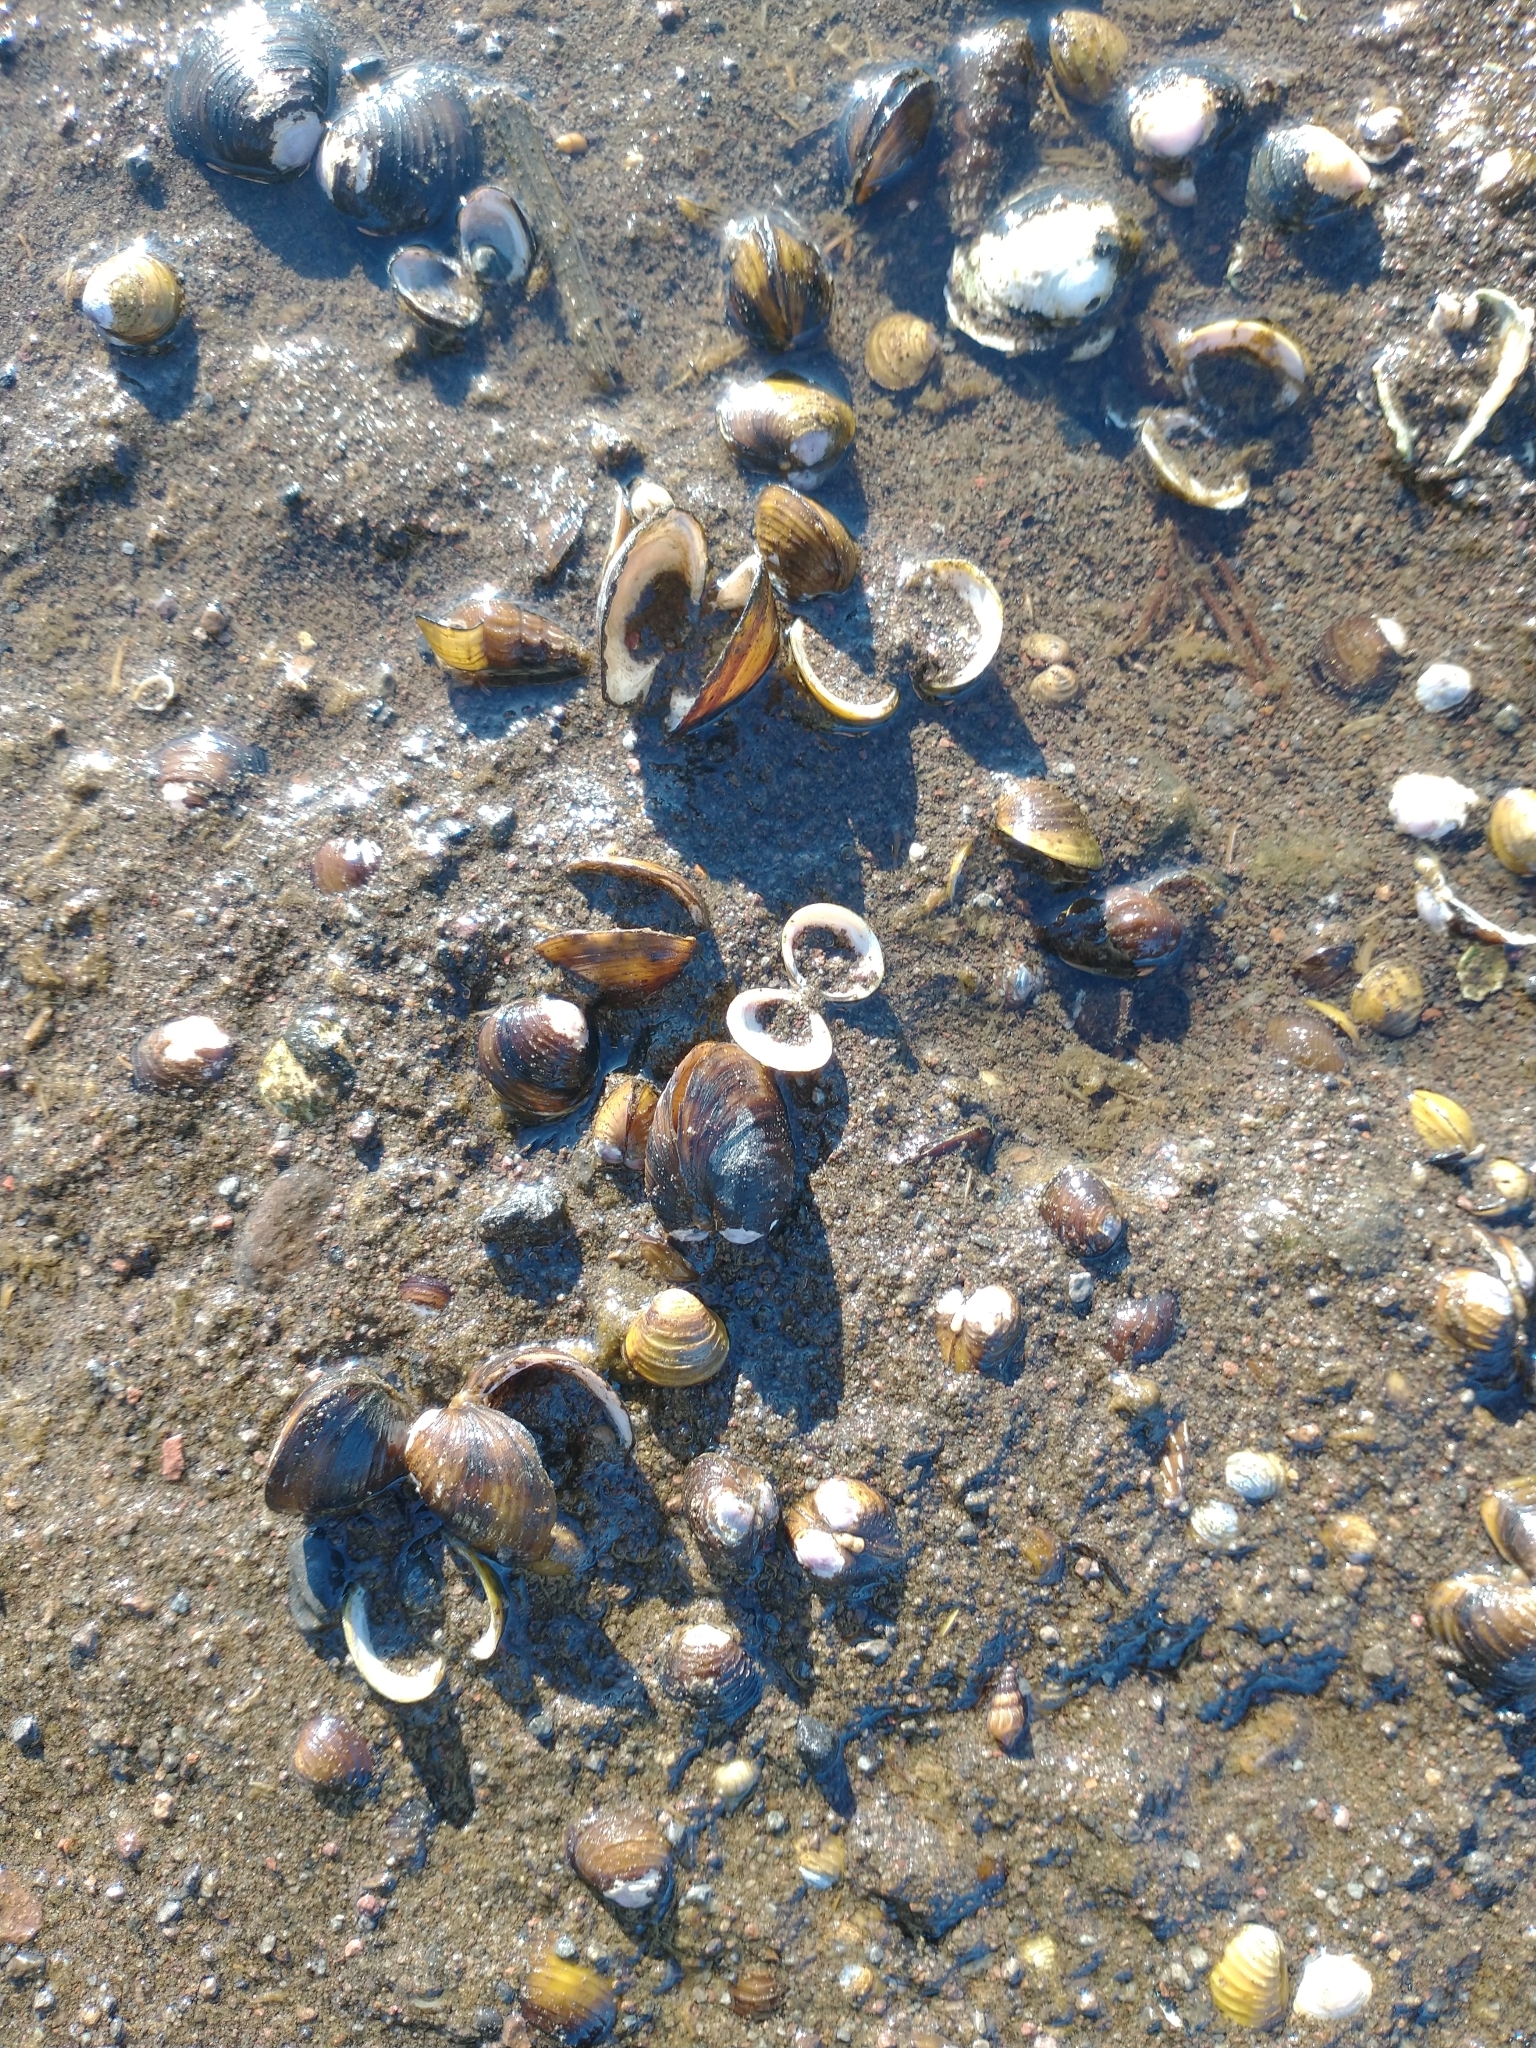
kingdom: Animalia
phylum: Mollusca
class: Bivalvia
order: Venerida
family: Cyrenidae
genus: Corbicula
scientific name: Corbicula fluminea
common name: Asian clam
